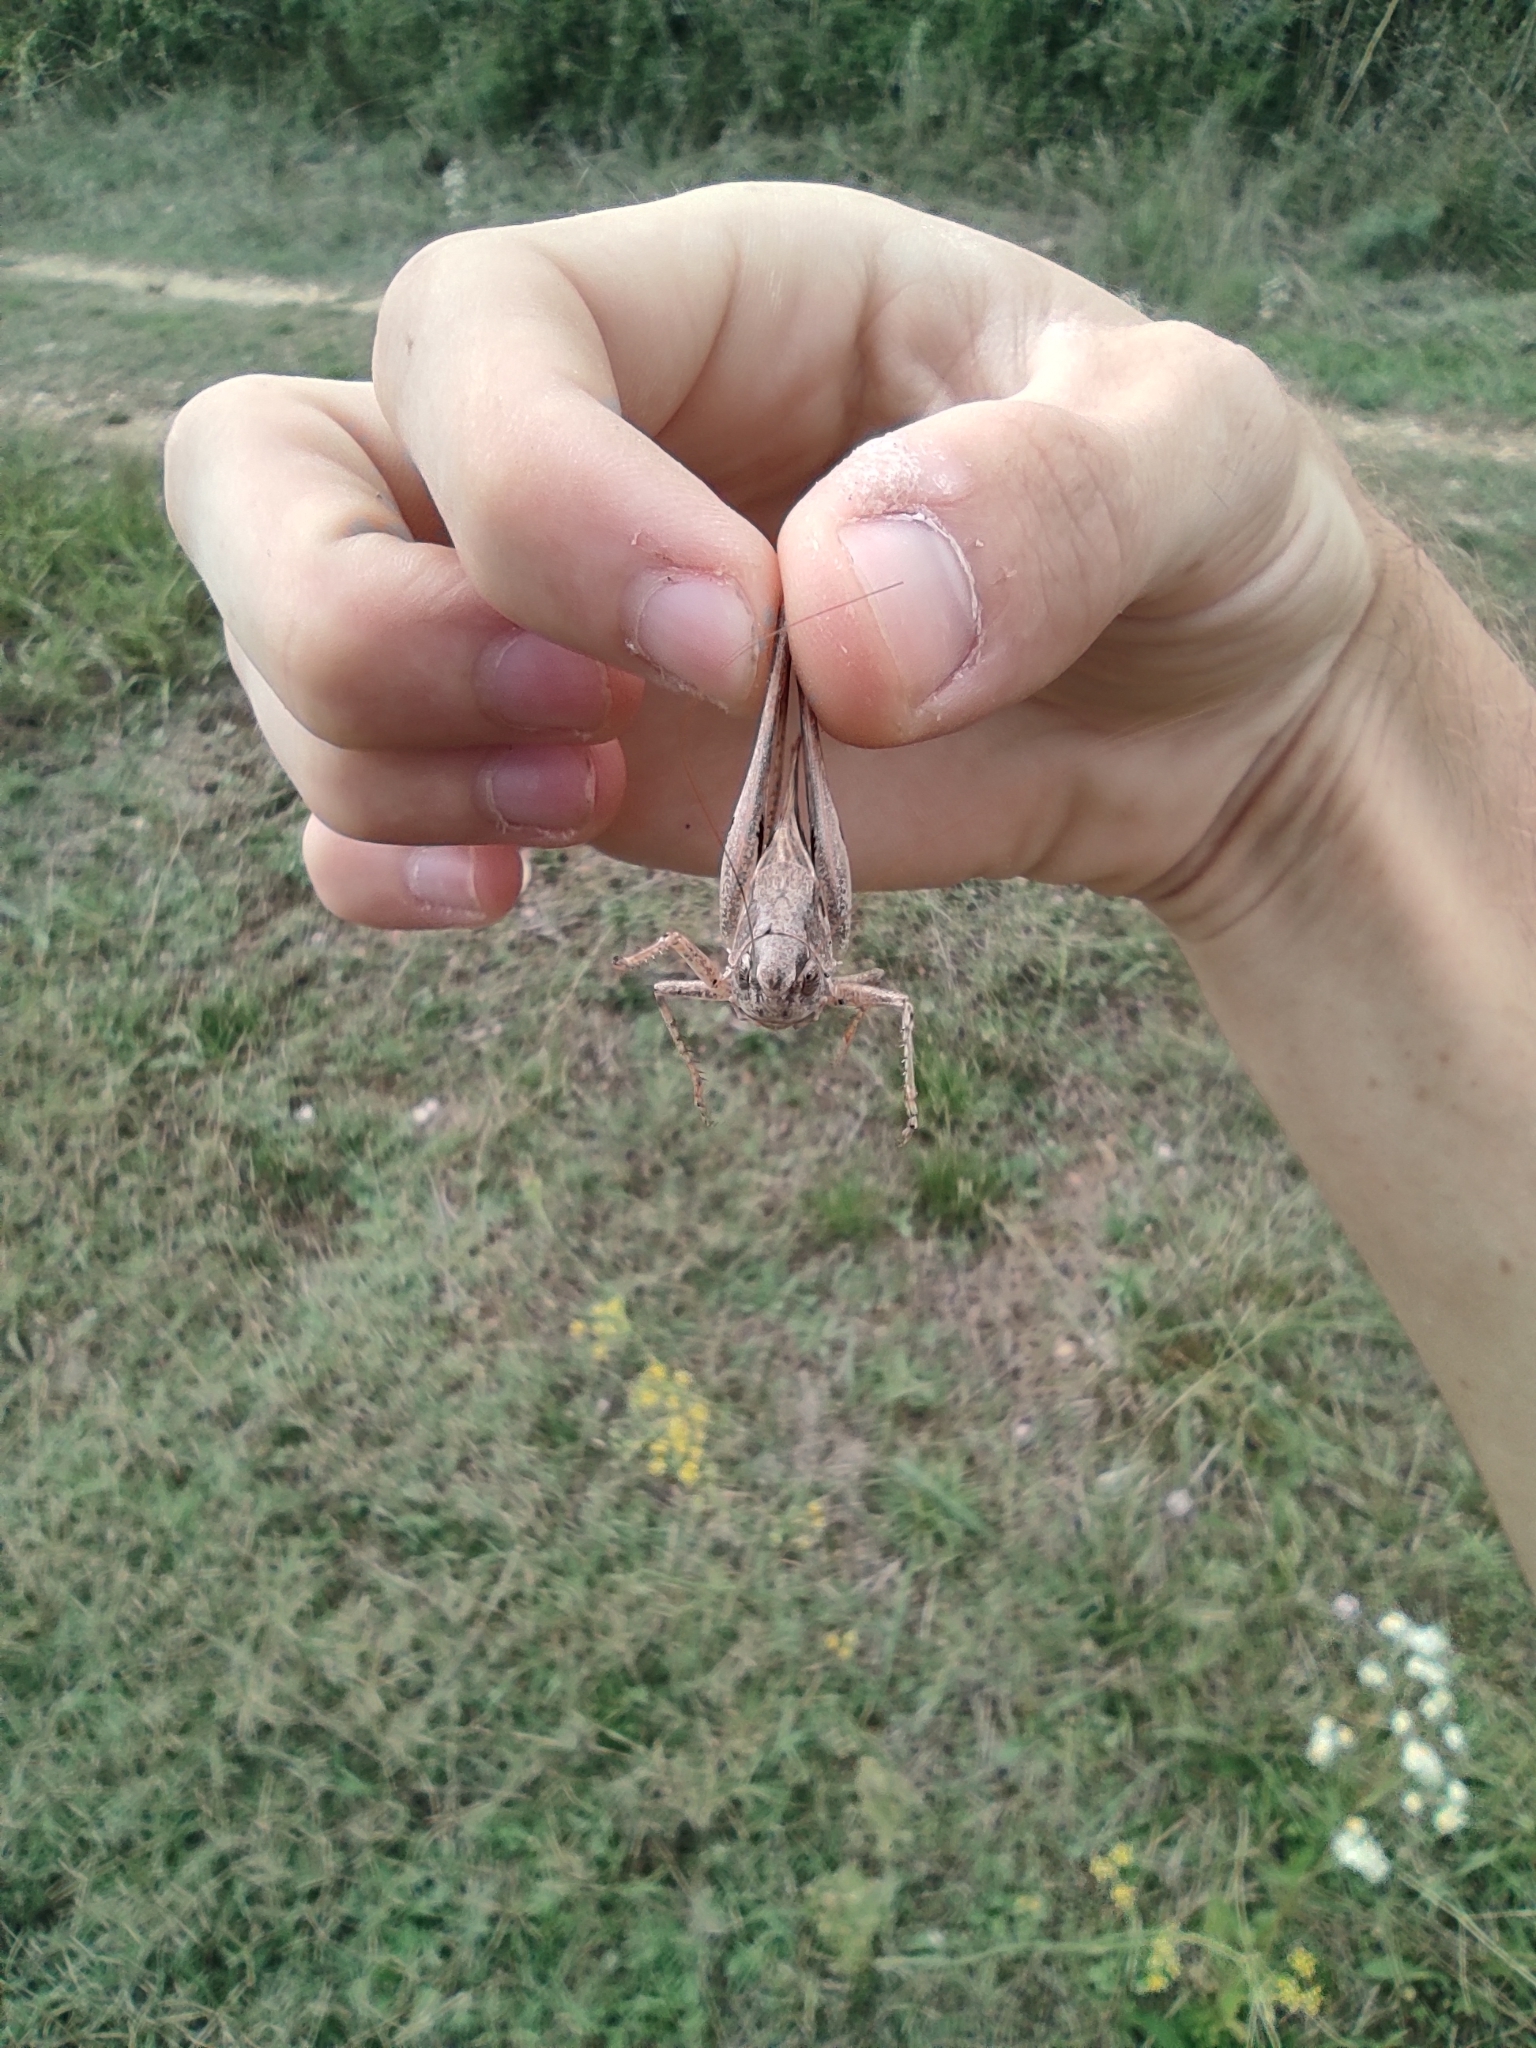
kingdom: Animalia
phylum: Arthropoda
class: Insecta
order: Orthoptera
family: Tettigoniidae
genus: Platycleis
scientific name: Platycleis intermedia
